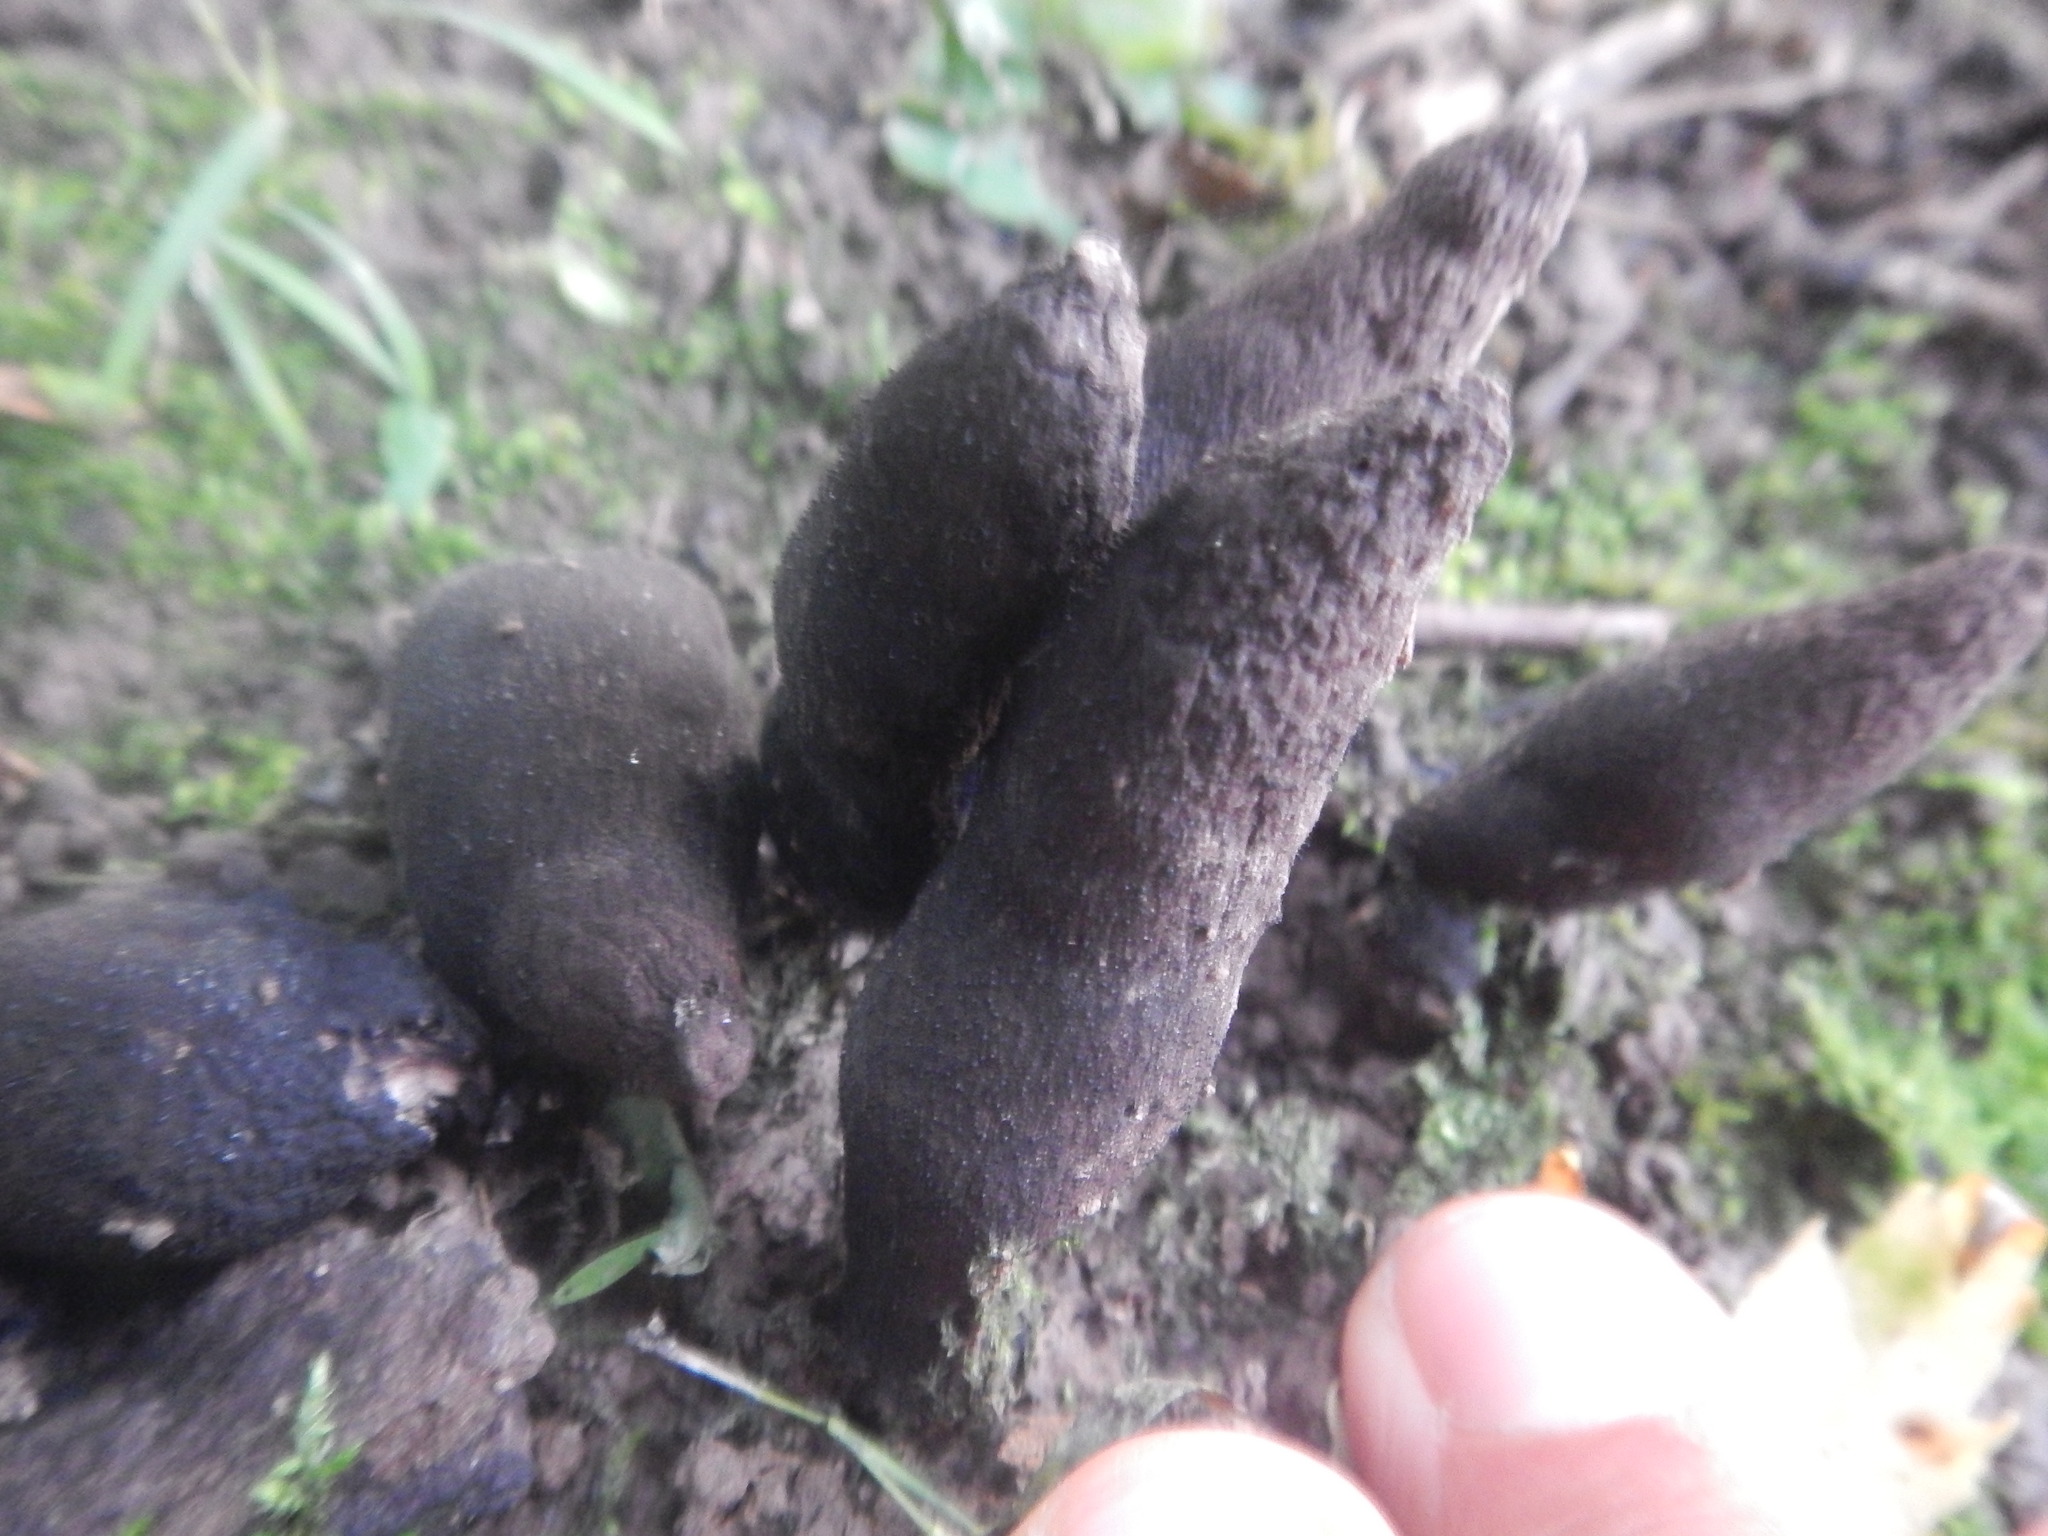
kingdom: Fungi
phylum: Ascomycota
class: Sordariomycetes
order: Xylariales
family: Xylariaceae
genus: Xylaria
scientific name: Xylaria polymorpha
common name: Dead man's fingers
